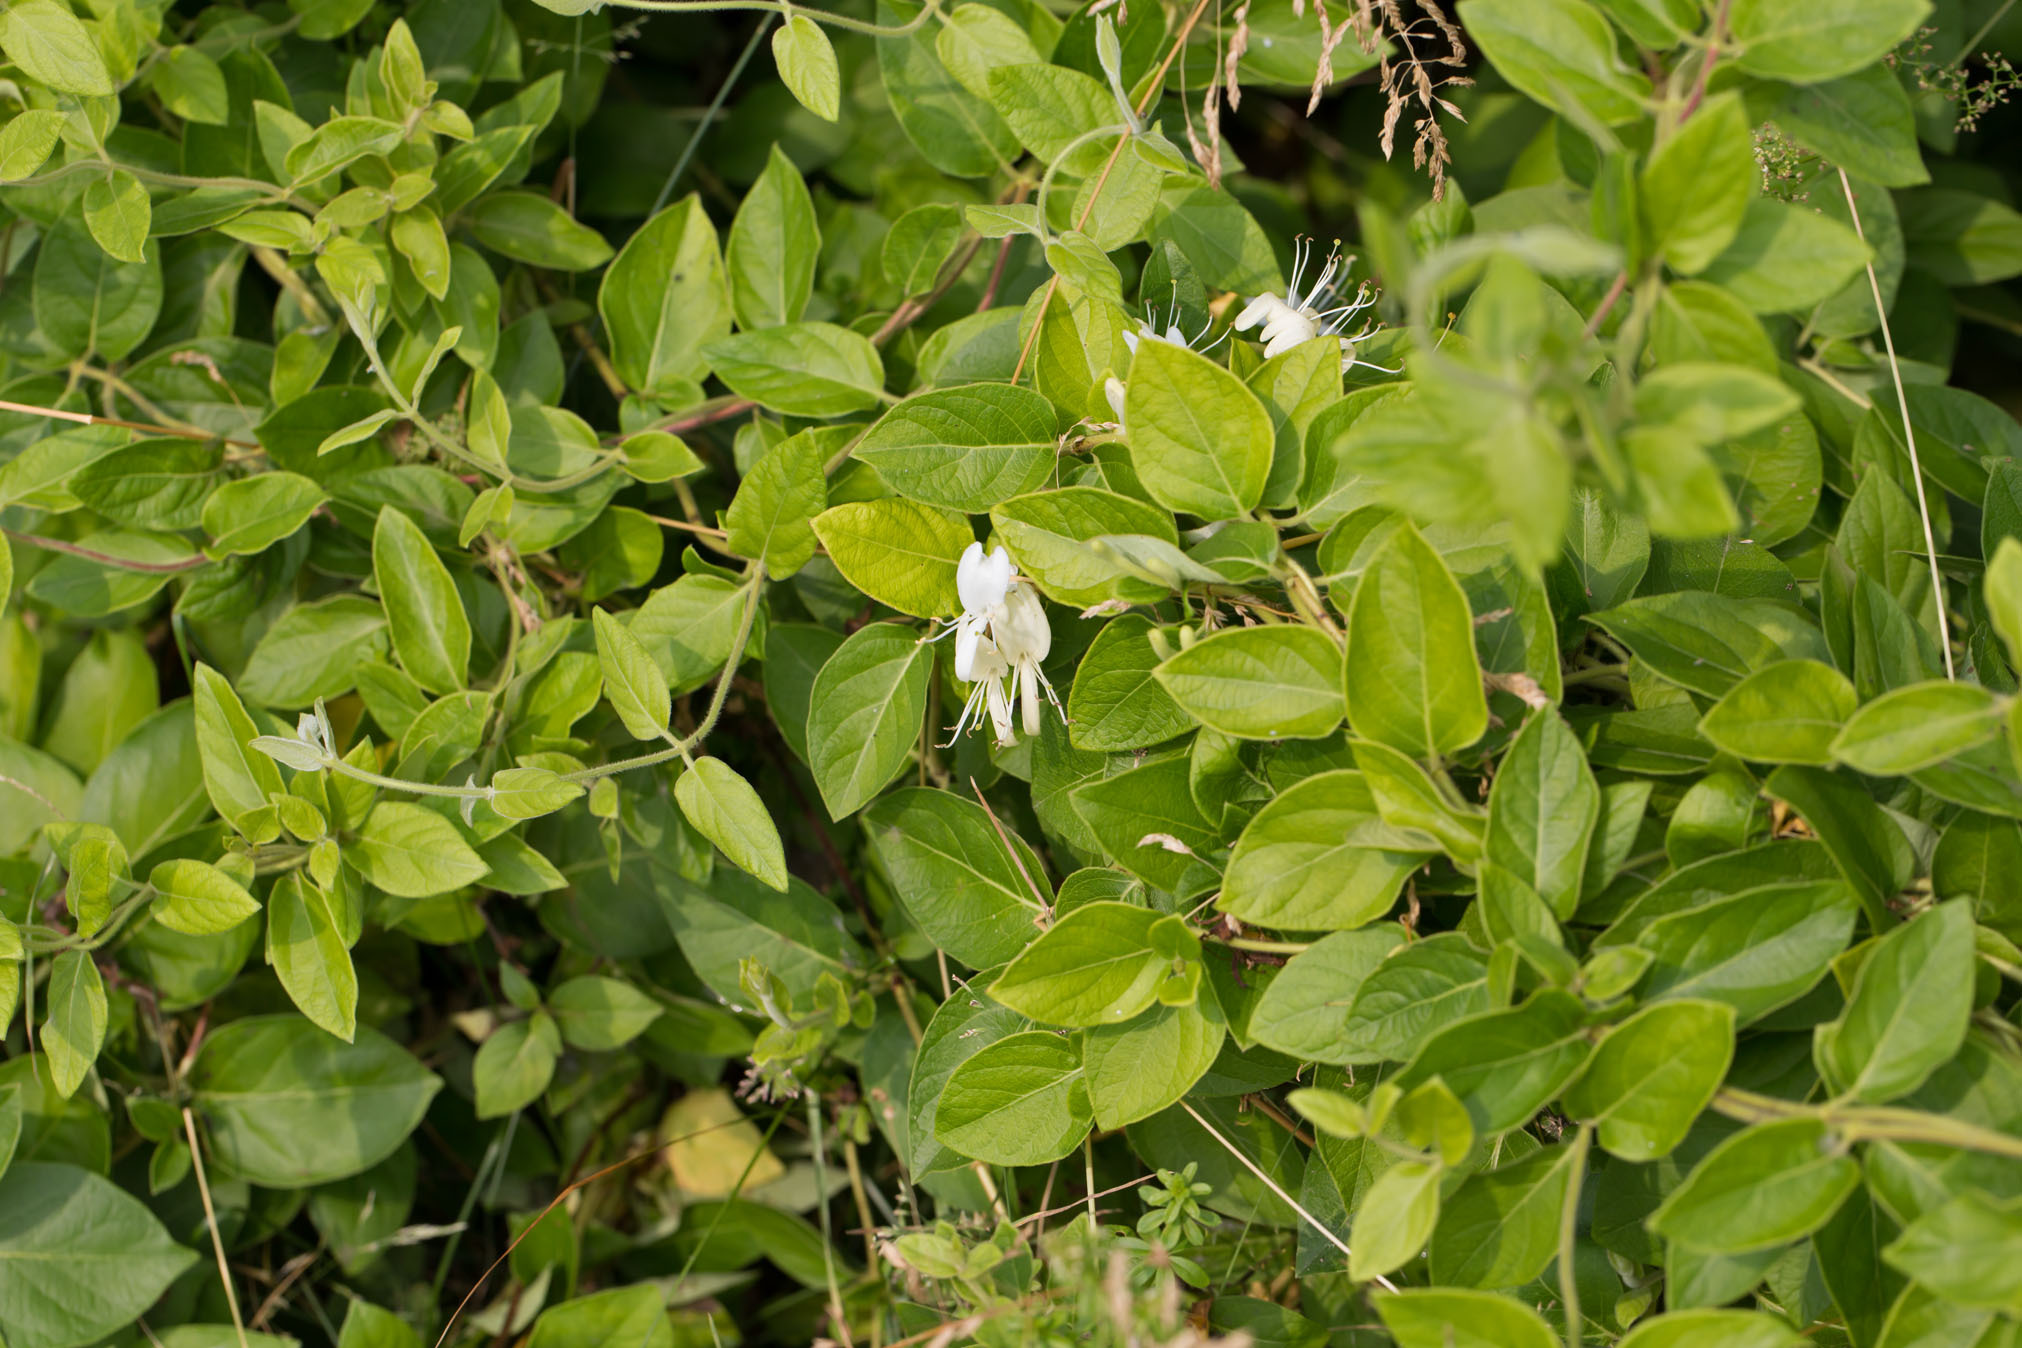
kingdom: Plantae
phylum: Tracheophyta
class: Magnoliopsida
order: Dipsacales
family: Caprifoliaceae
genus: Lonicera
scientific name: Lonicera japonica
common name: Japanese honeysuckle
